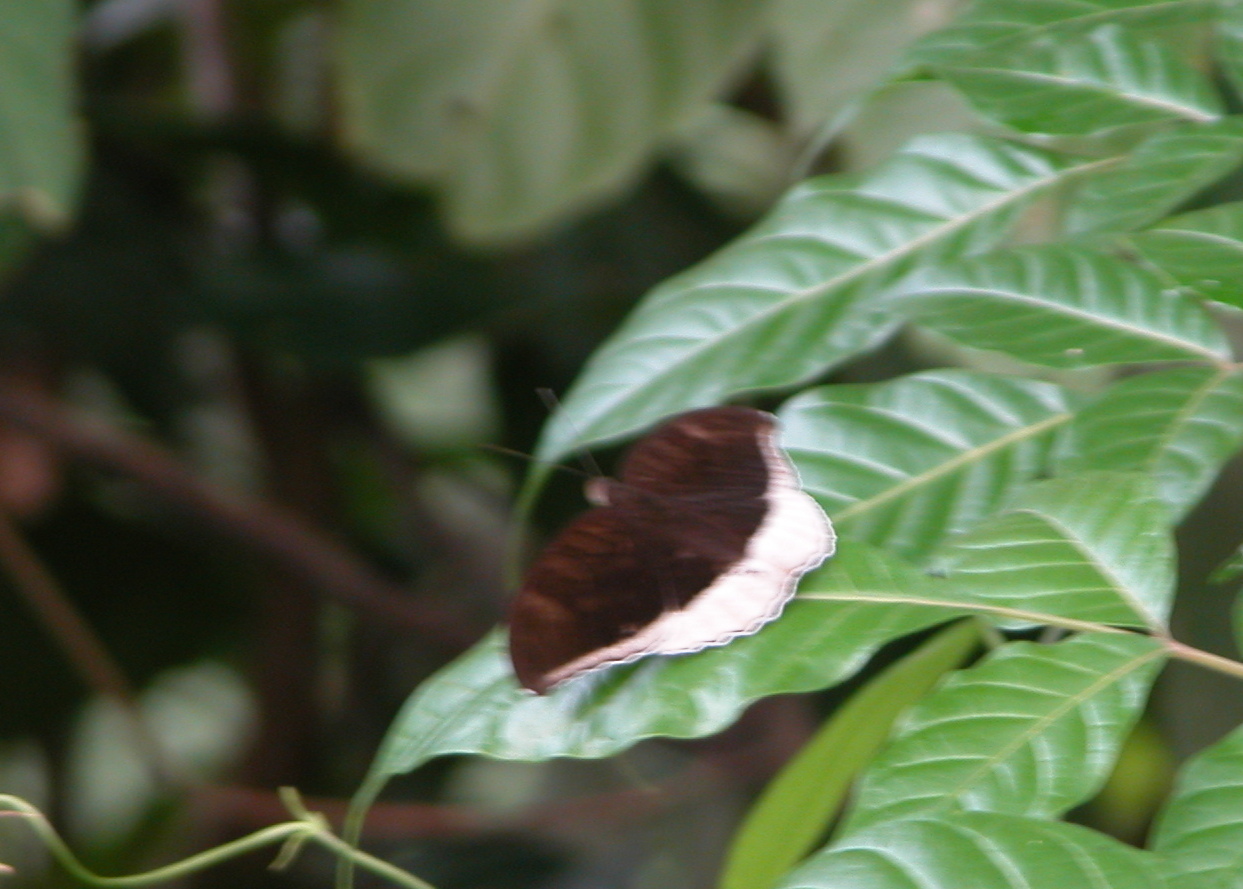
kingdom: Animalia
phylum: Arthropoda
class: Insecta
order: Lepidoptera
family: Nymphalidae
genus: Tanaecia
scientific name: Tanaecia lepidea
